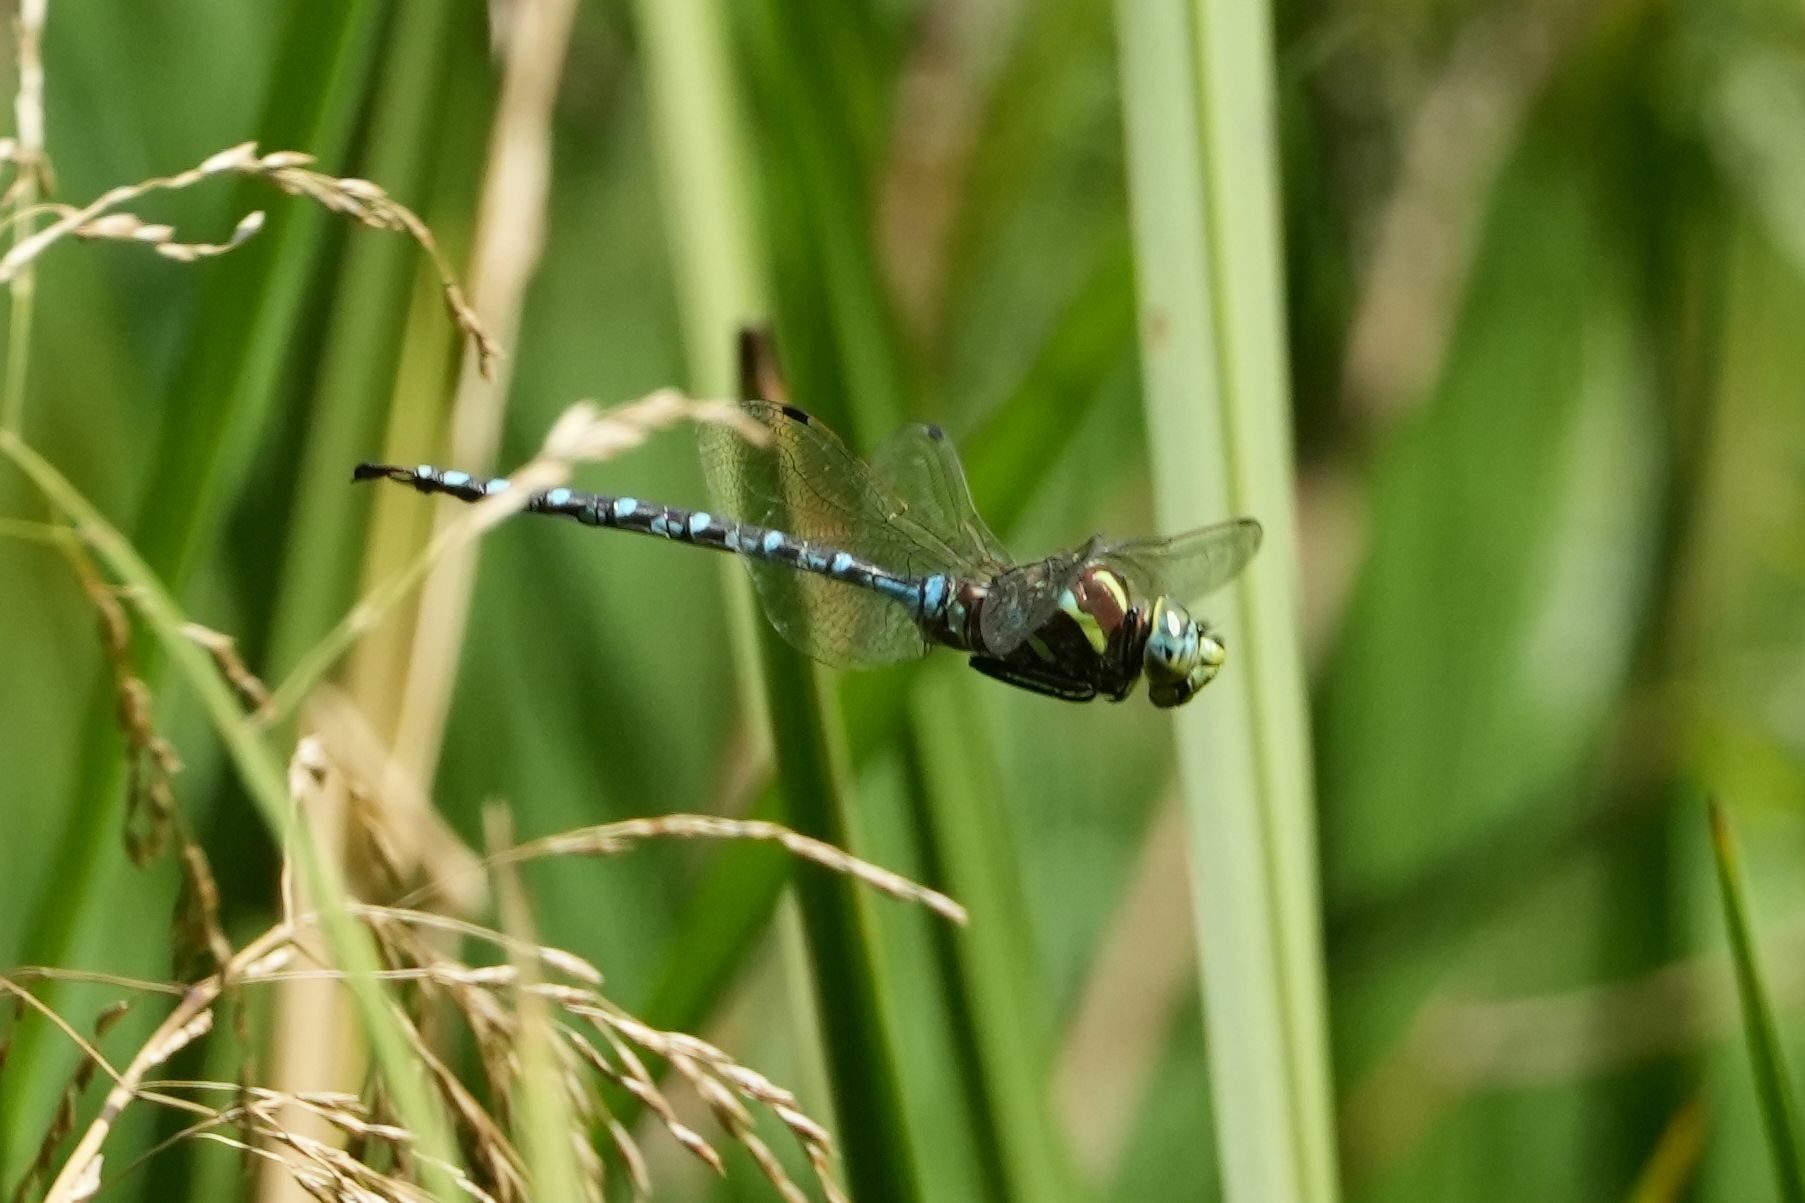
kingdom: Animalia
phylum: Arthropoda
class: Insecta
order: Odonata
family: Aeshnidae
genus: Aeshna
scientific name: Aeshna constricta
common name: Lance-tipped darner
